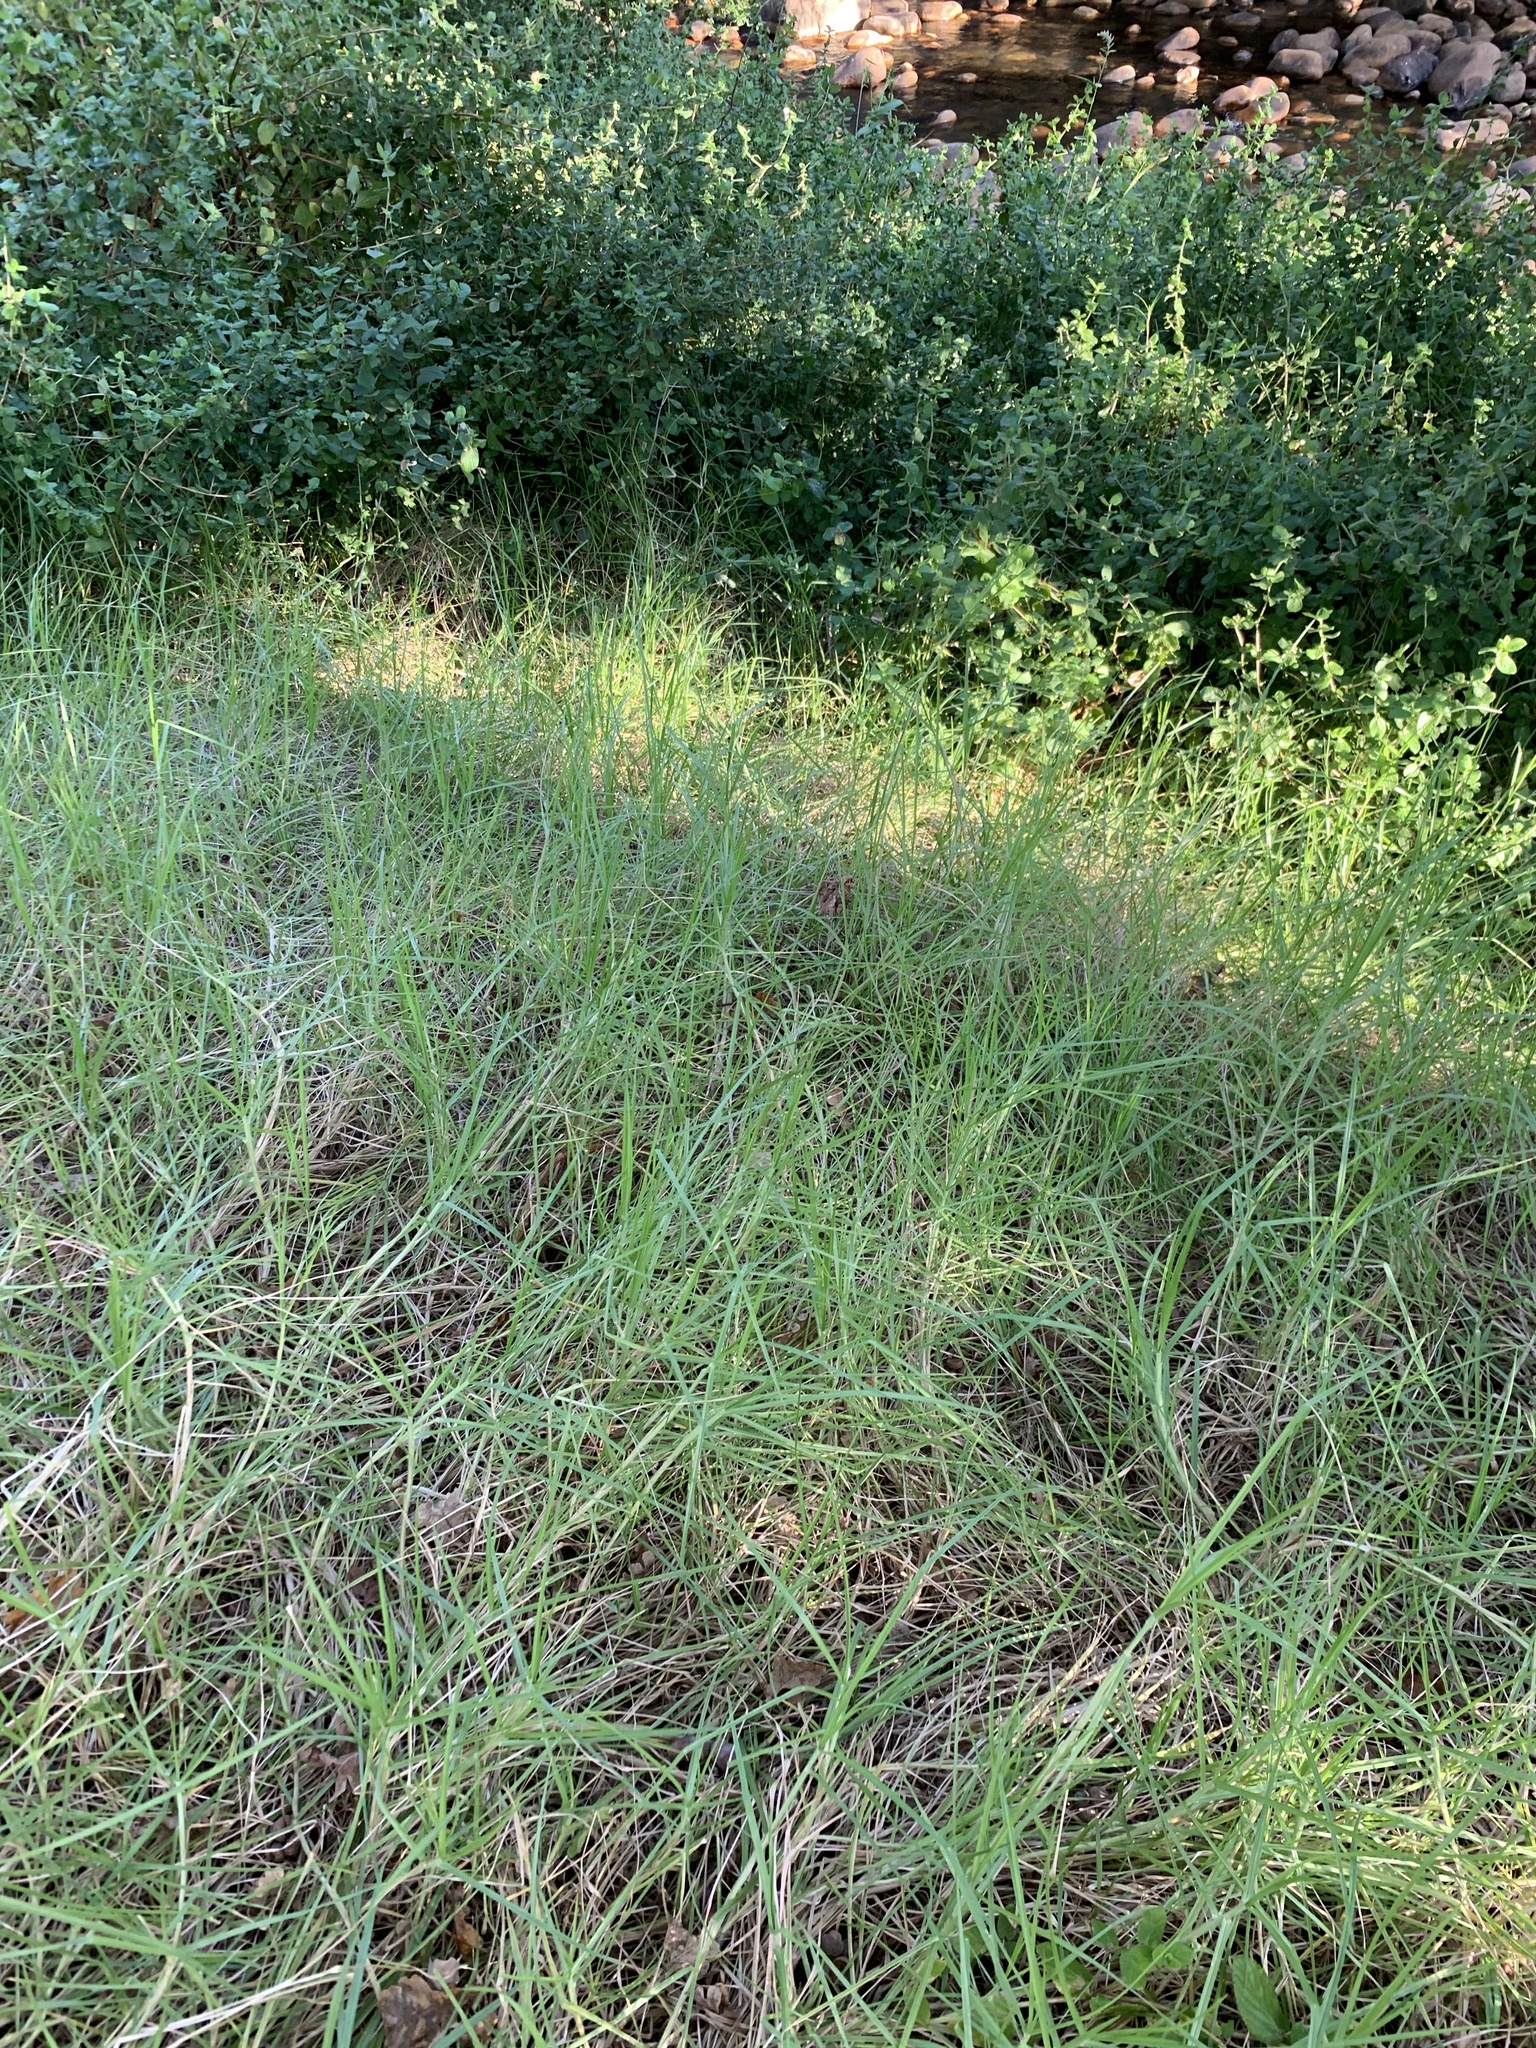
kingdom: Plantae
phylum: Tracheophyta
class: Liliopsida
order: Poales
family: Poaceae
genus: Cenchrus
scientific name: Cenchrus clandestinus
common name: Kikuyugrass
